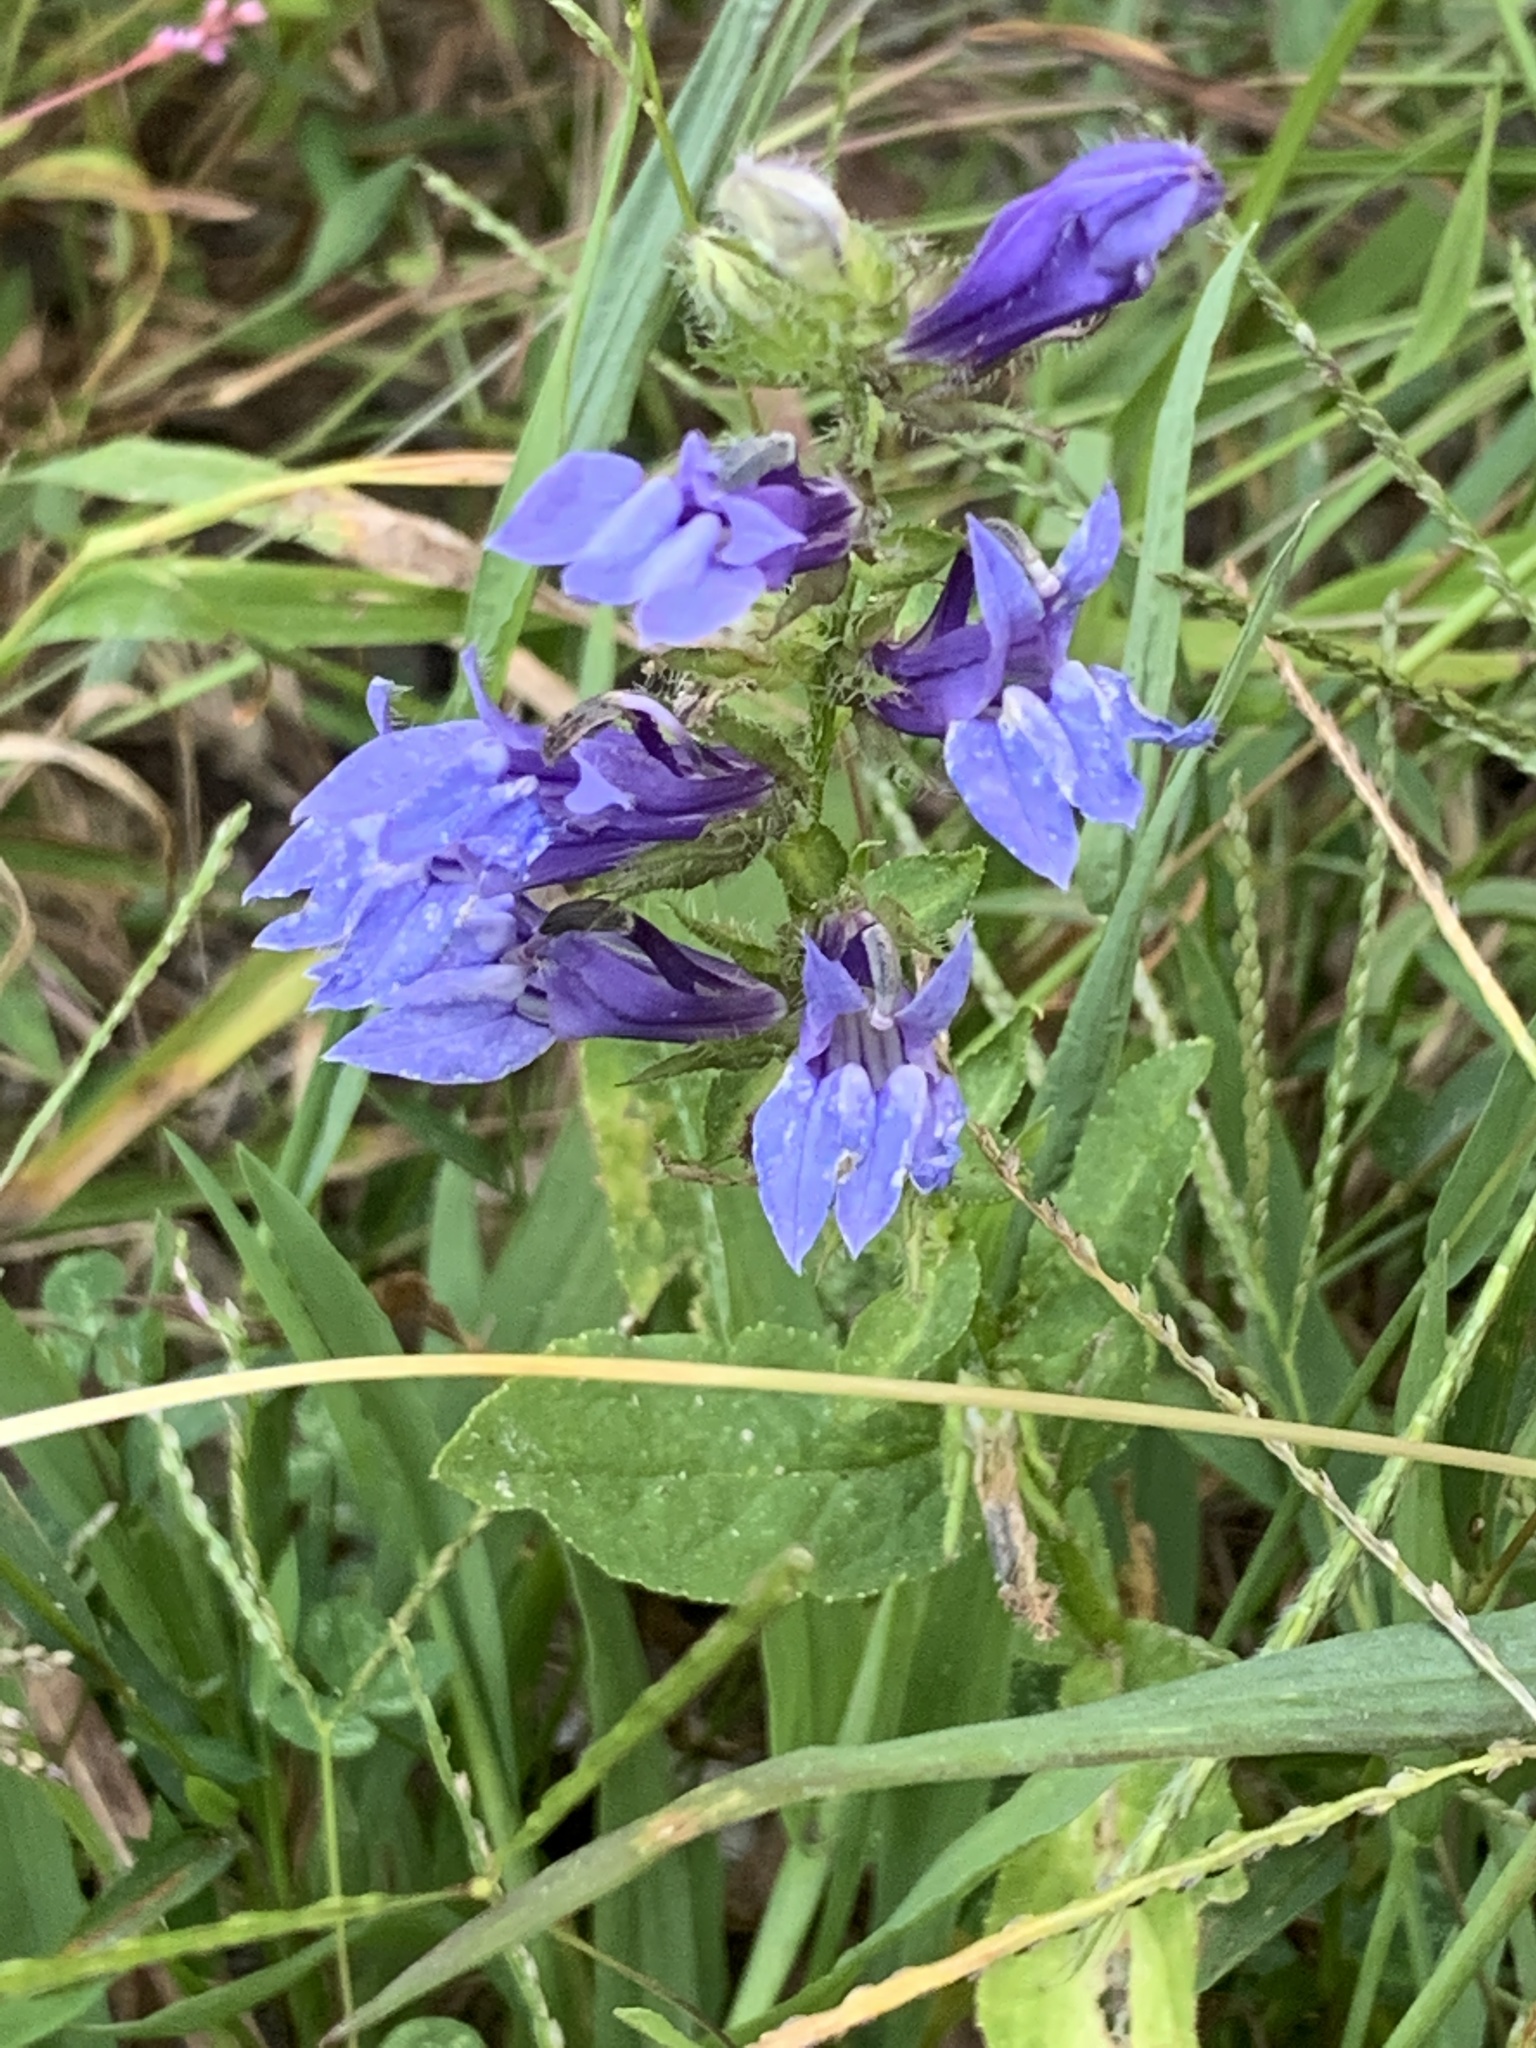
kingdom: Plantae
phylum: Tracheophyta
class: Magnoliopsida
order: Asterales
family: Campanulaceae
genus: Lobelia
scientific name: Lobelia siphilitica
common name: Great lobelia
